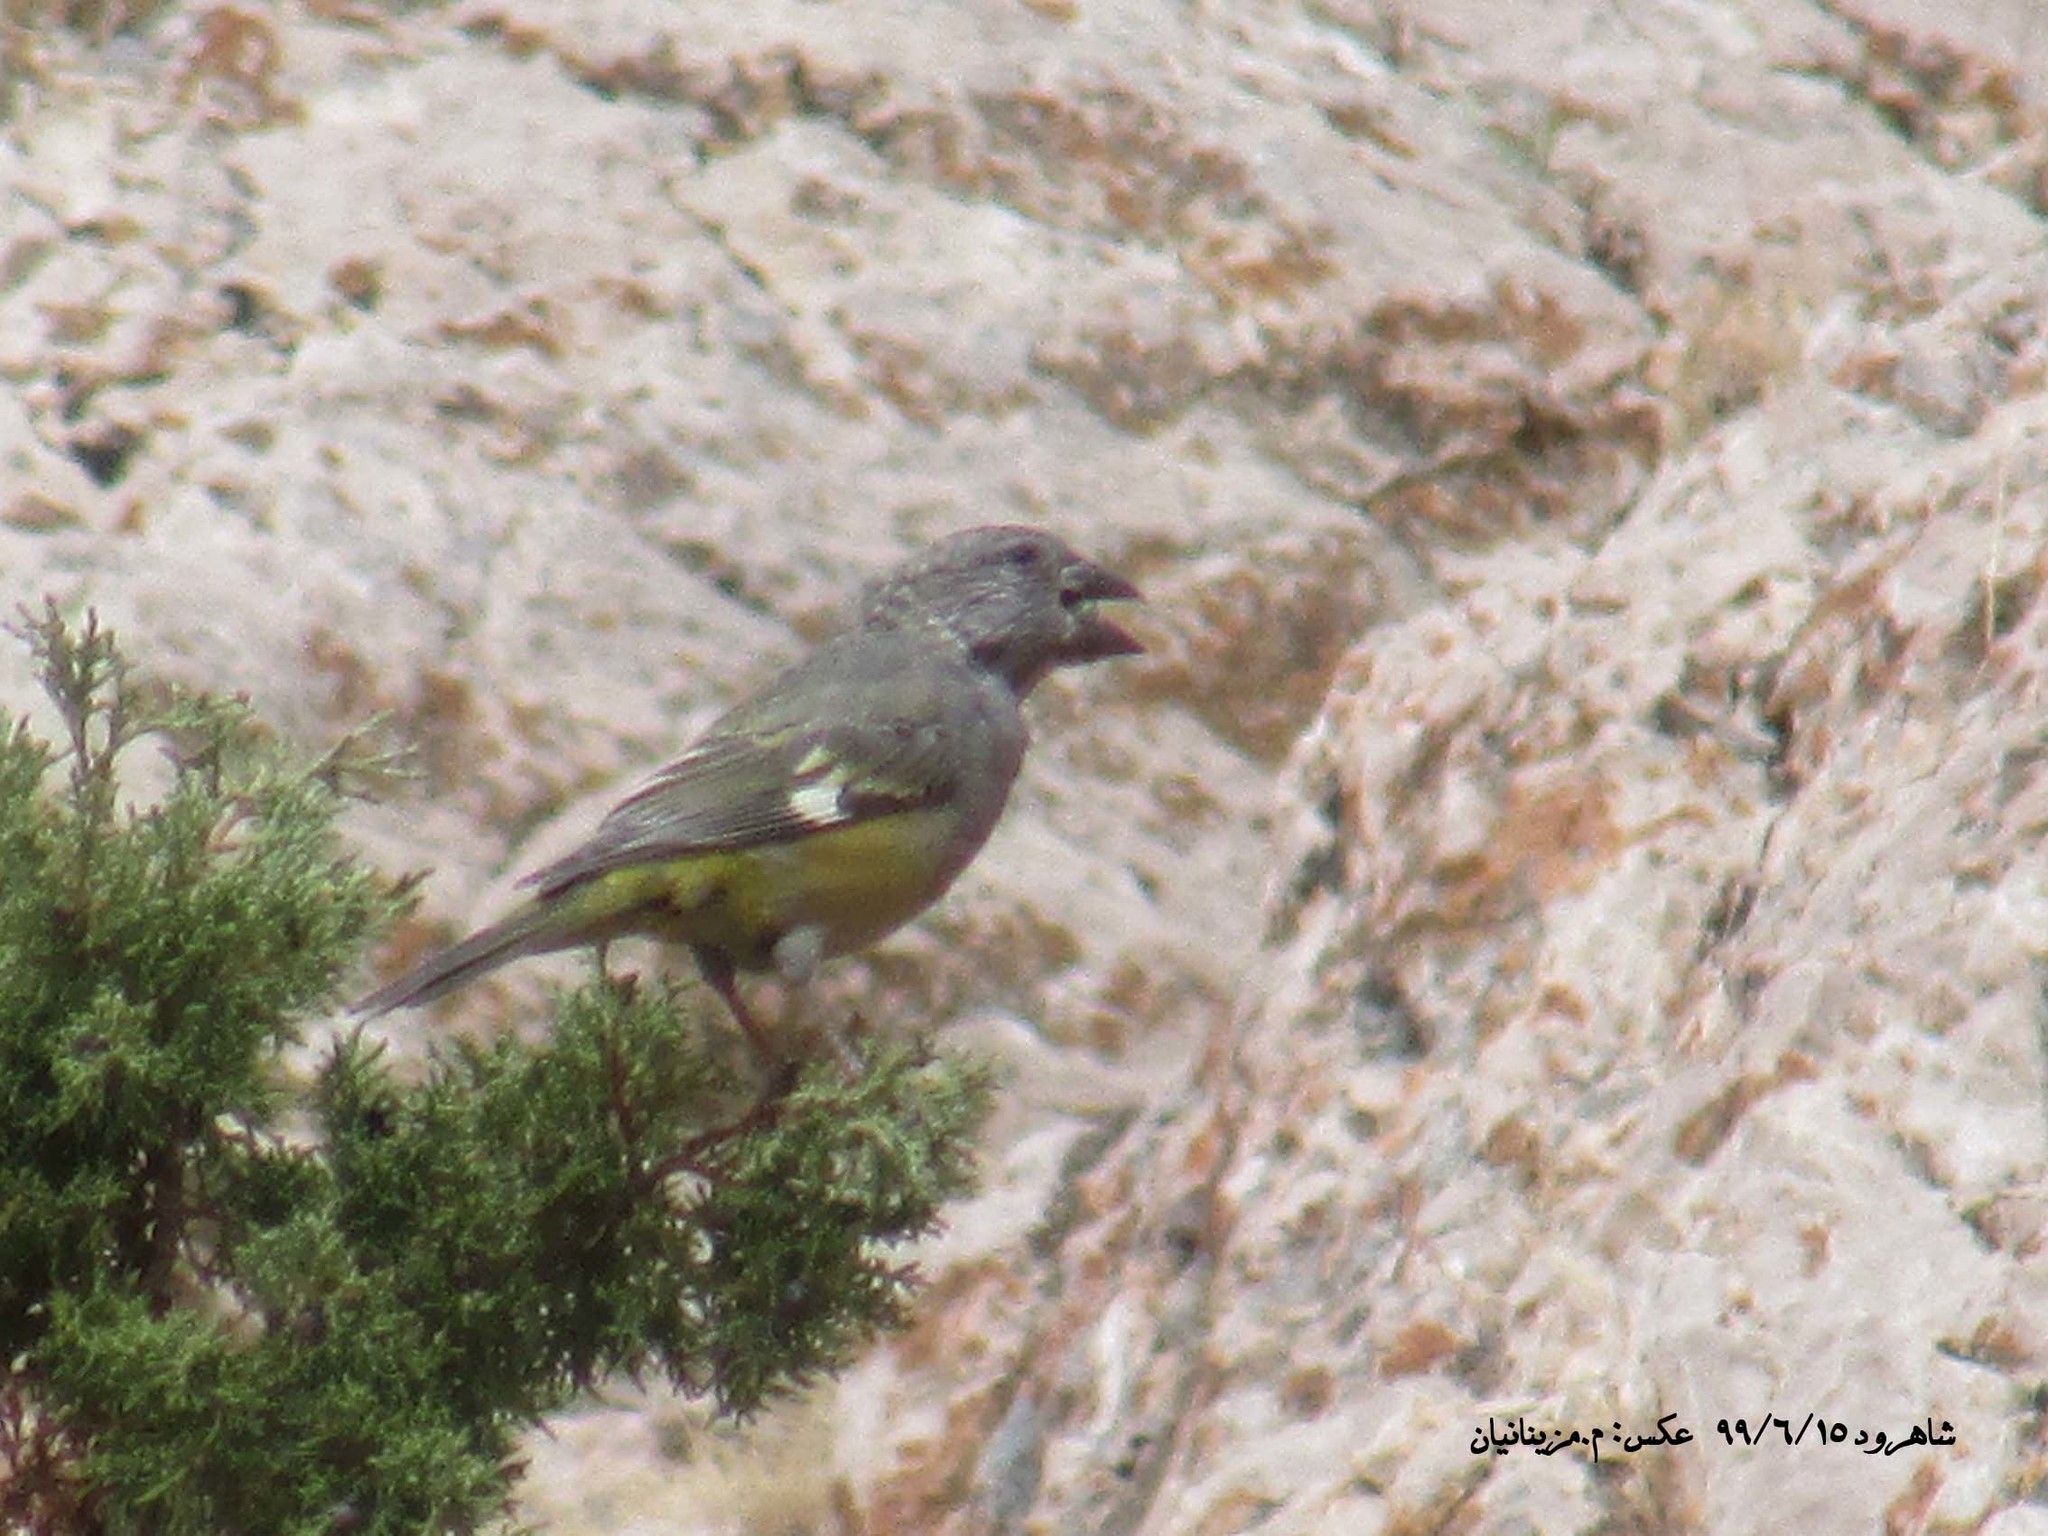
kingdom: Animalia
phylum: Chordata
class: Aves
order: Passeriformes
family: Fringillidae
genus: Mycerobas
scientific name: Mycerobas carnipes
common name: White-winged grosbeak
